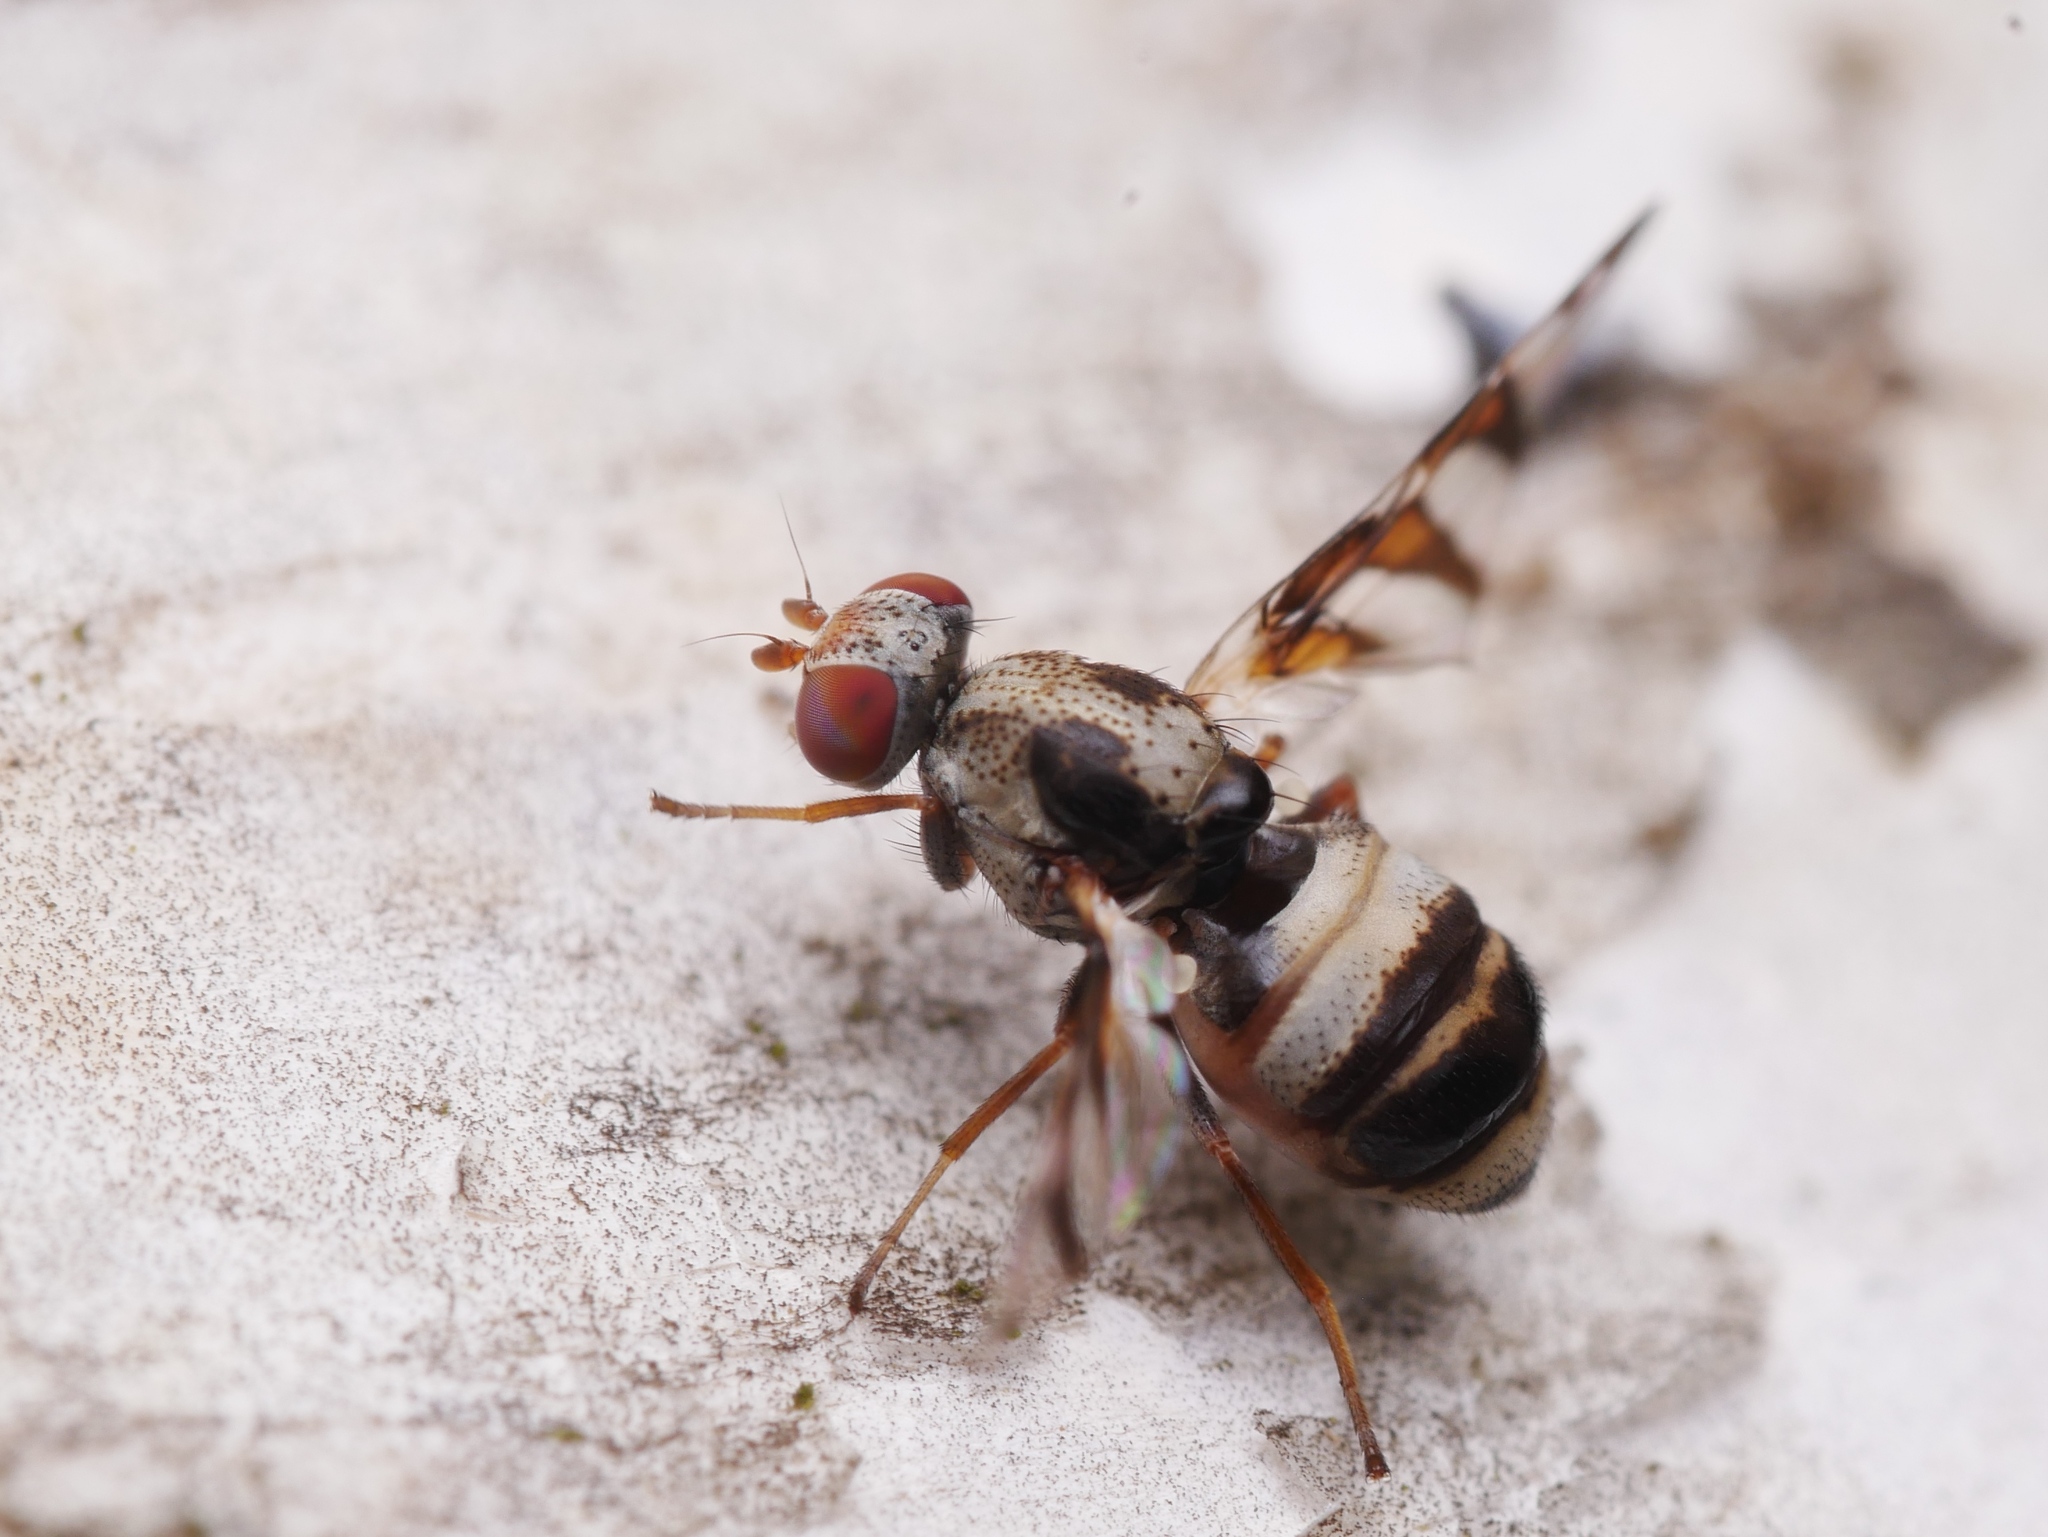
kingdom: Animalia
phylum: Arthropoda
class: Insecta
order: Diptera
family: Ulidiidae
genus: Myennis
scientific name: Myennis octopunctata
